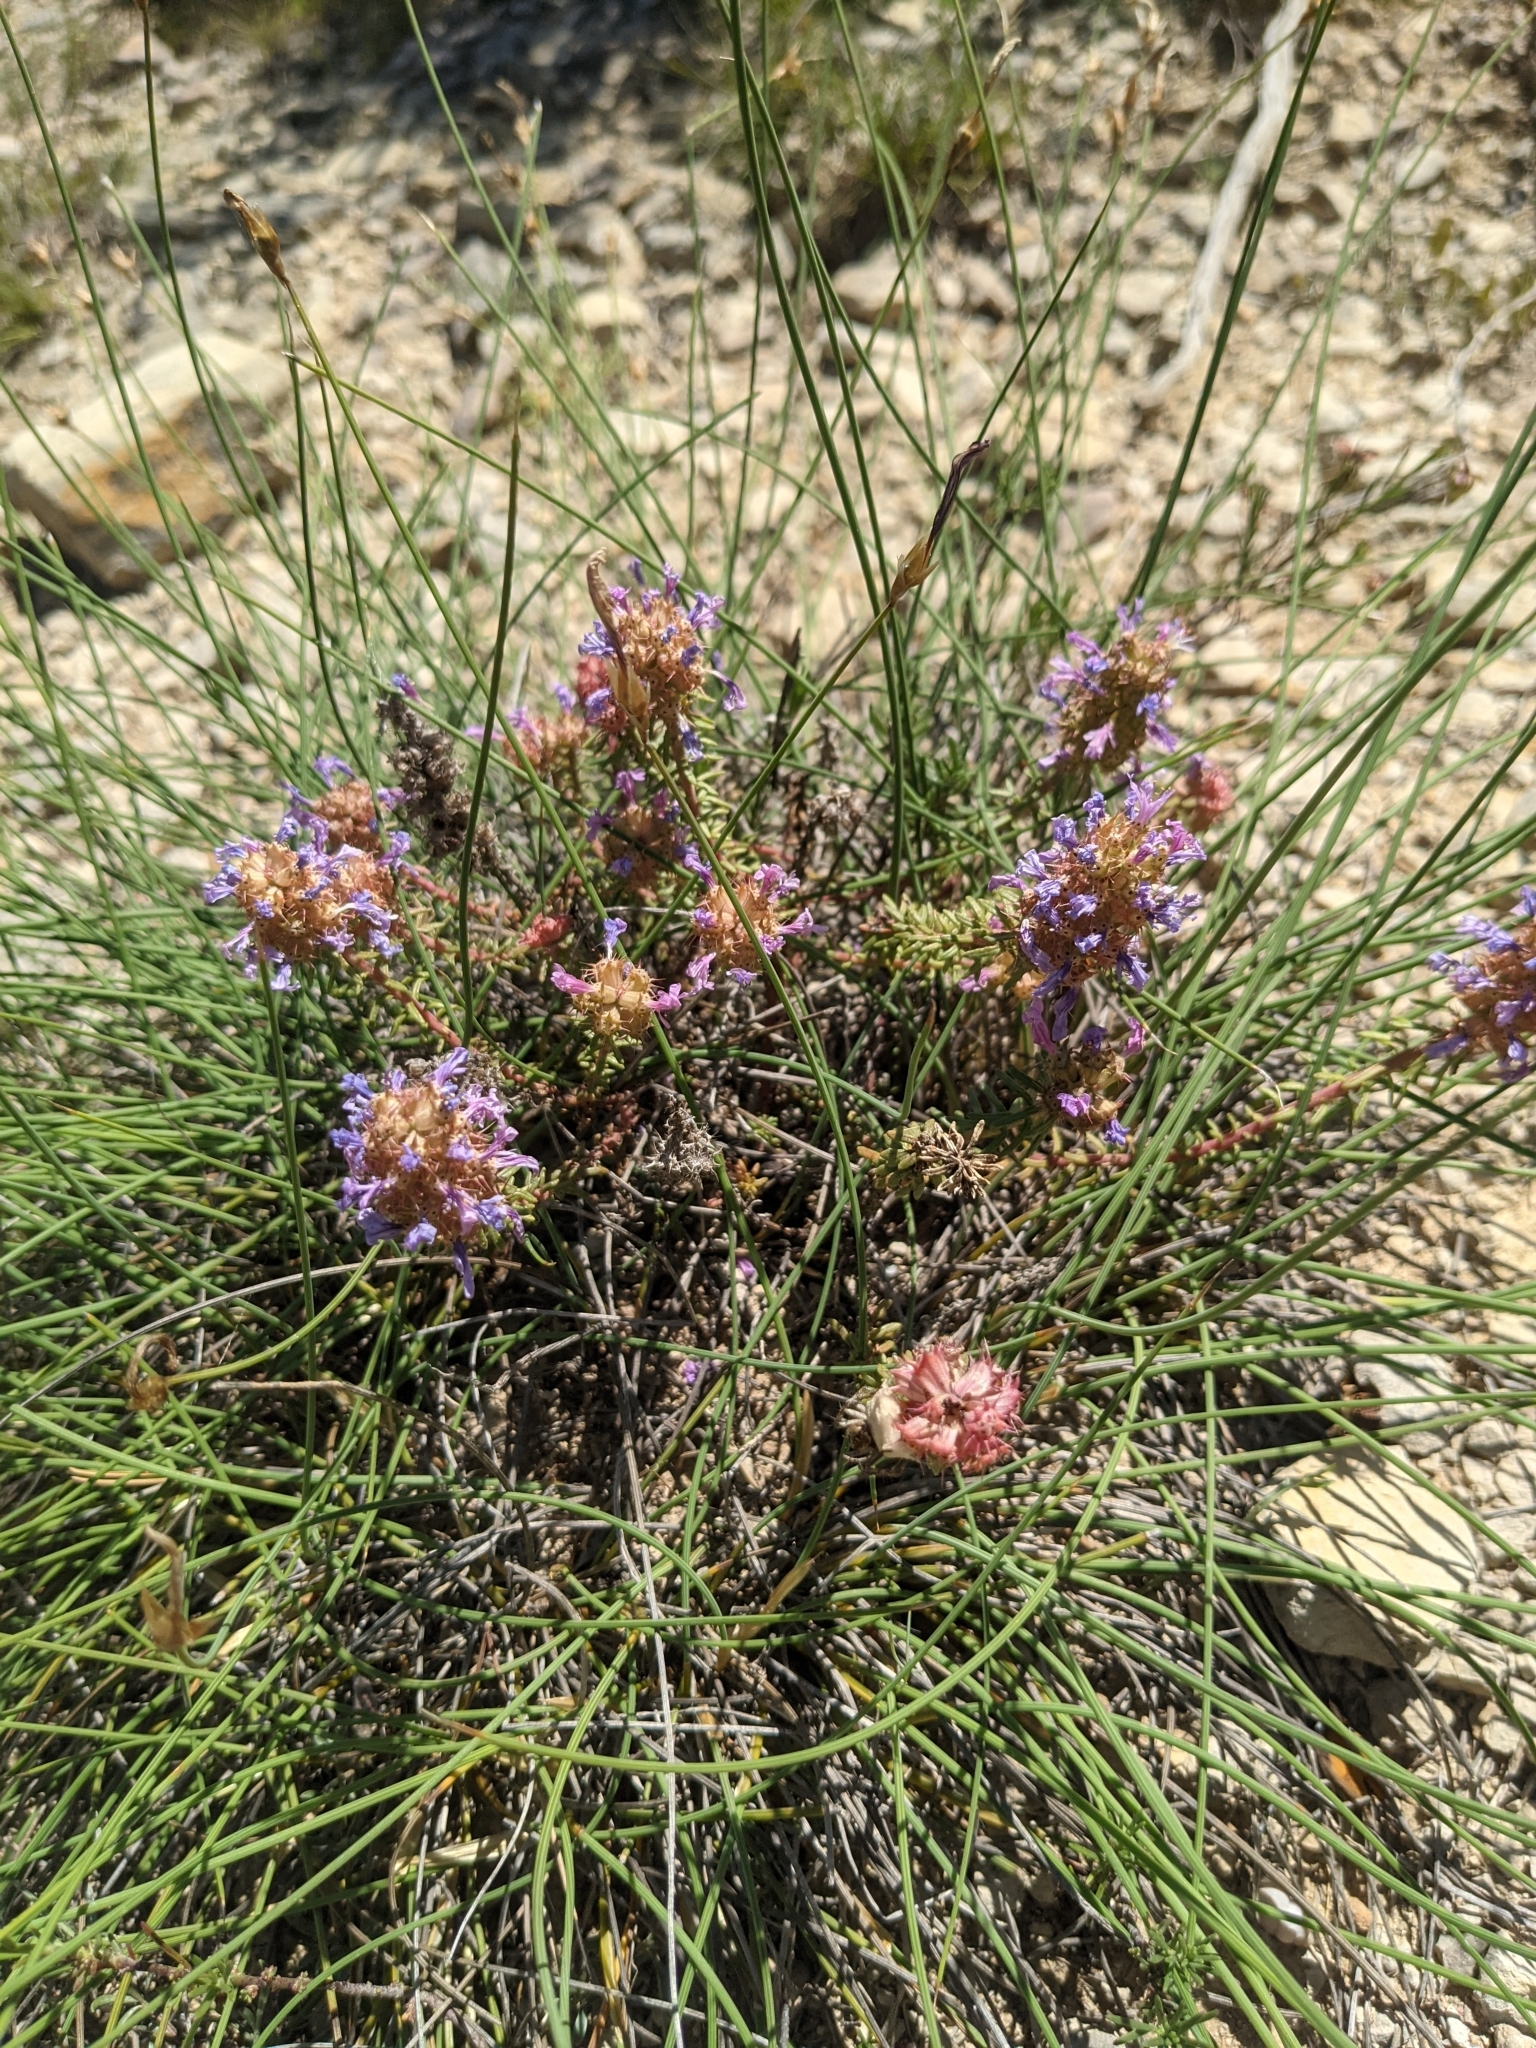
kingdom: Plantae
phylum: Tracheophyta
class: Magnoliopsida
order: Ericales
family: Primulaceae
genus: Coris
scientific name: Coris monspeliensis
